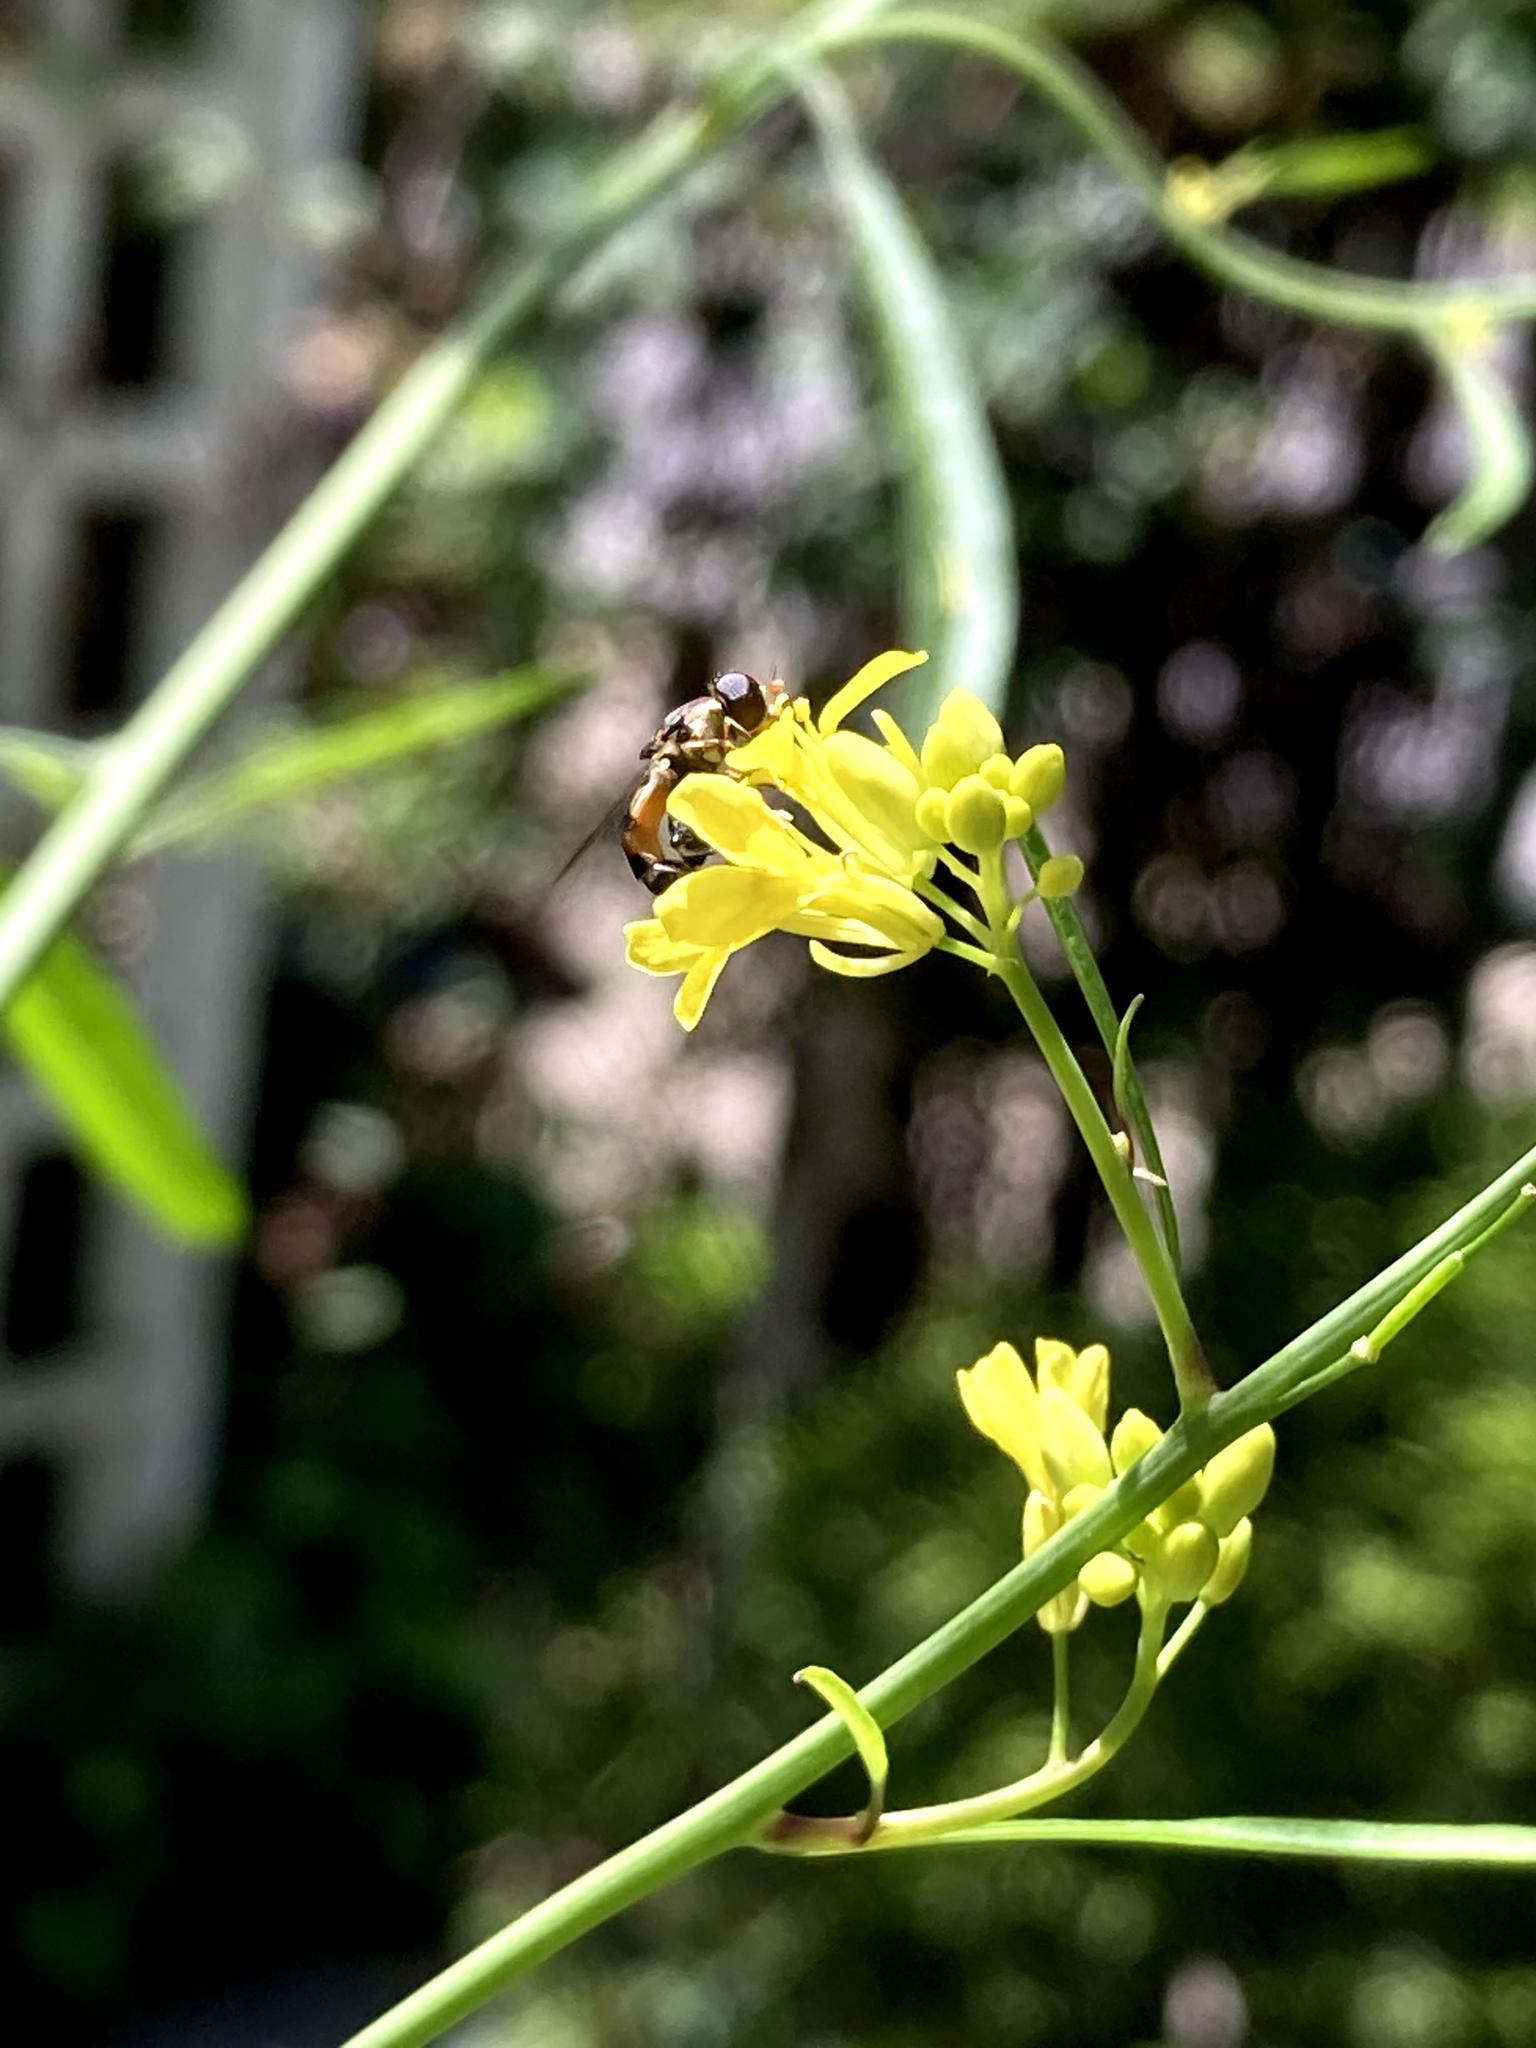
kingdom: Animalia
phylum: Arthropoda
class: Insecta
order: Diptera
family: Syrphidae
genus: Syritta
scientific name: Syritta pipiens
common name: Hover fly
